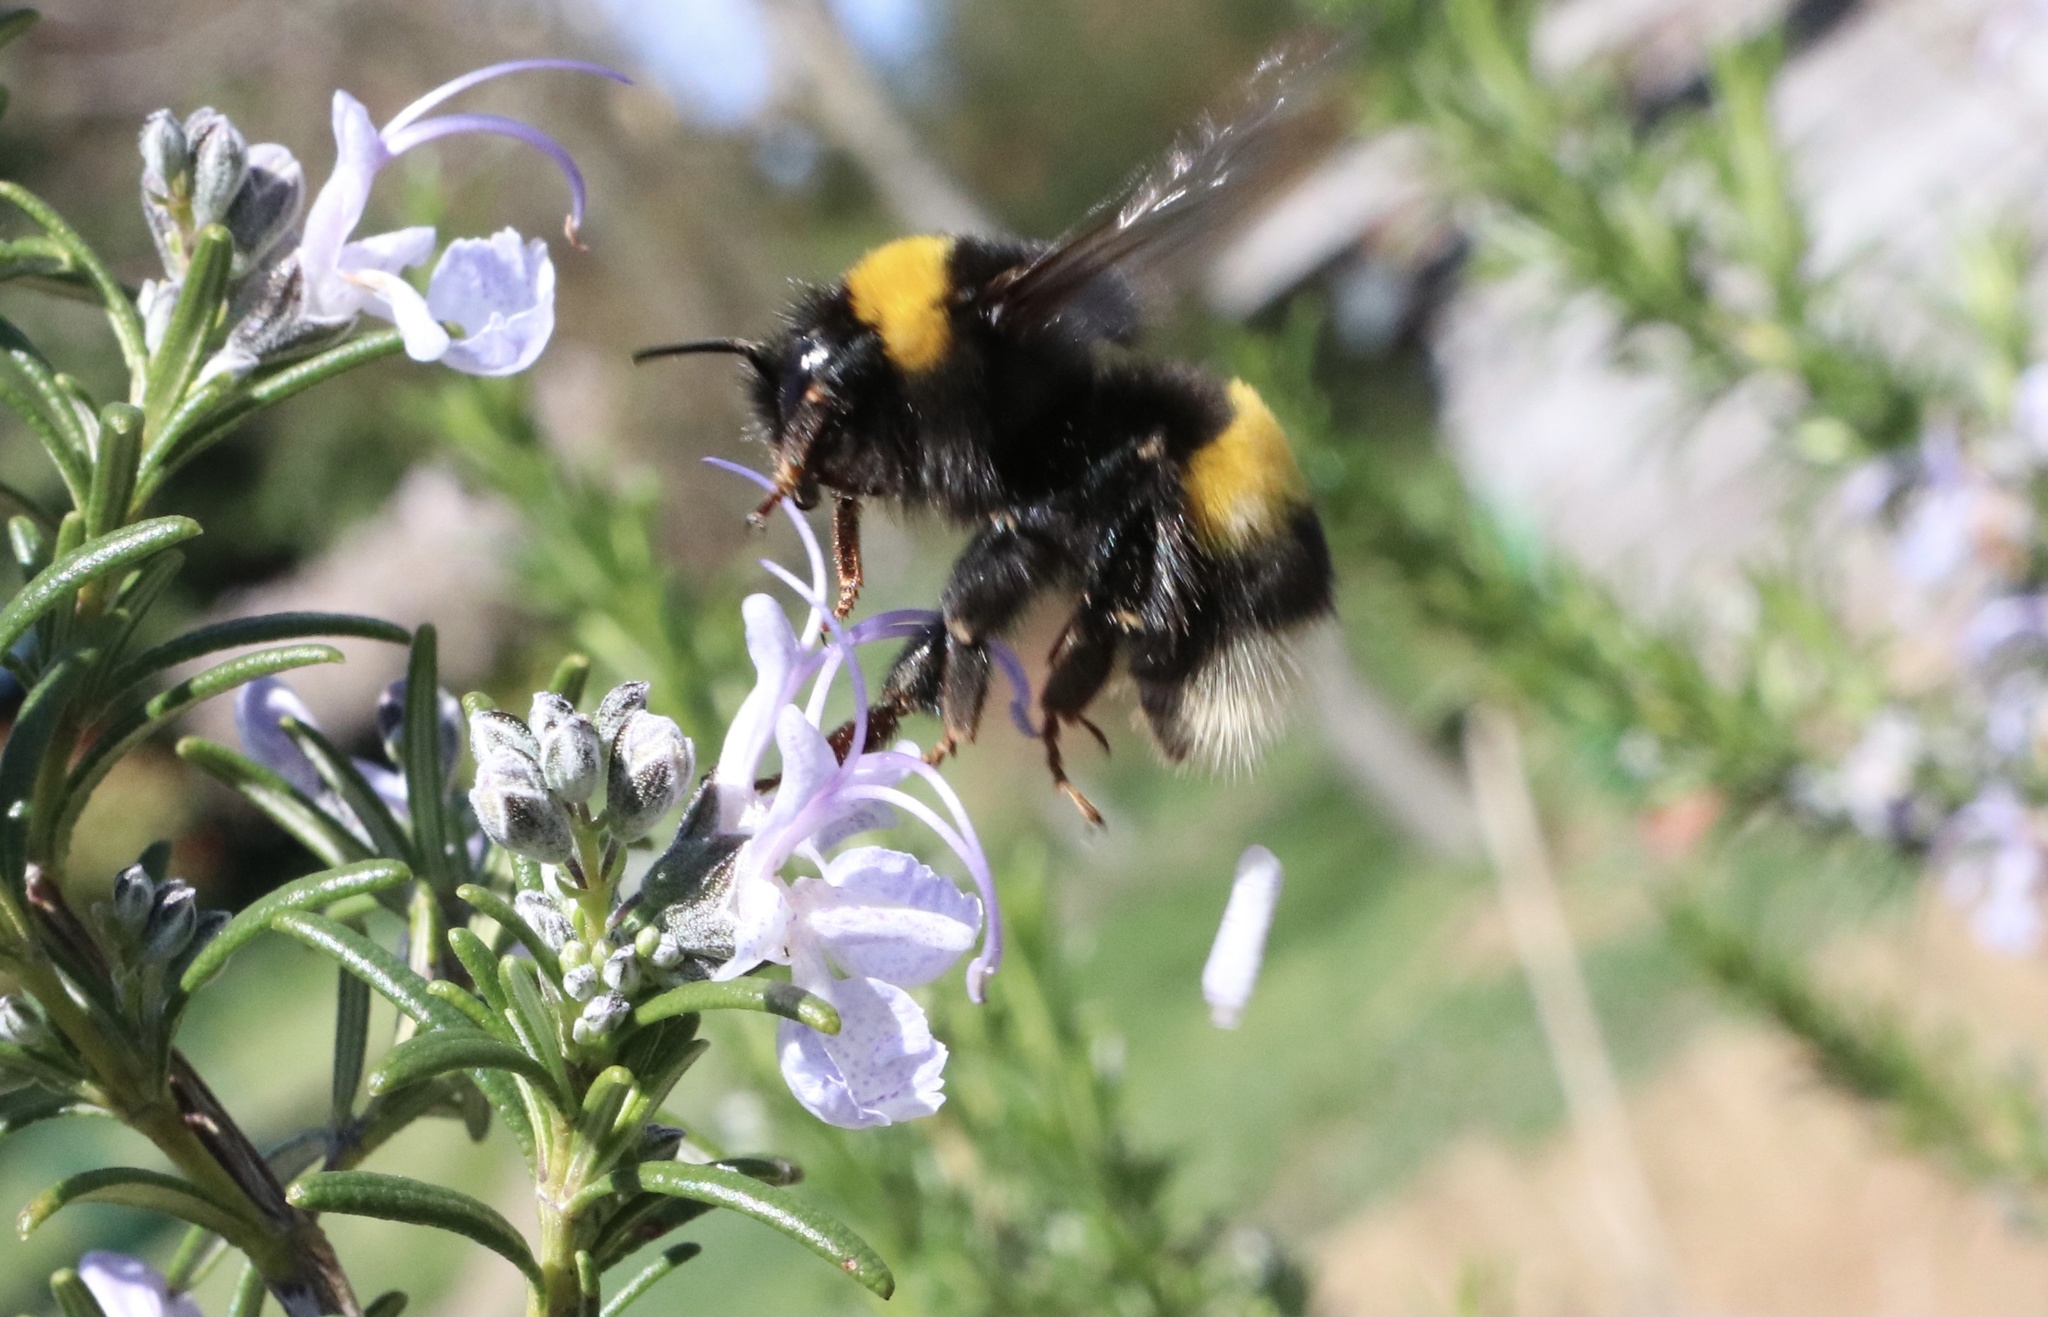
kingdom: Animalia
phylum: Arthropoda
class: Insecta
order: Hymenoptera
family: Apidae
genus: Bombus
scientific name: Bombus terrestris
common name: Buff-tailed bumblebee
